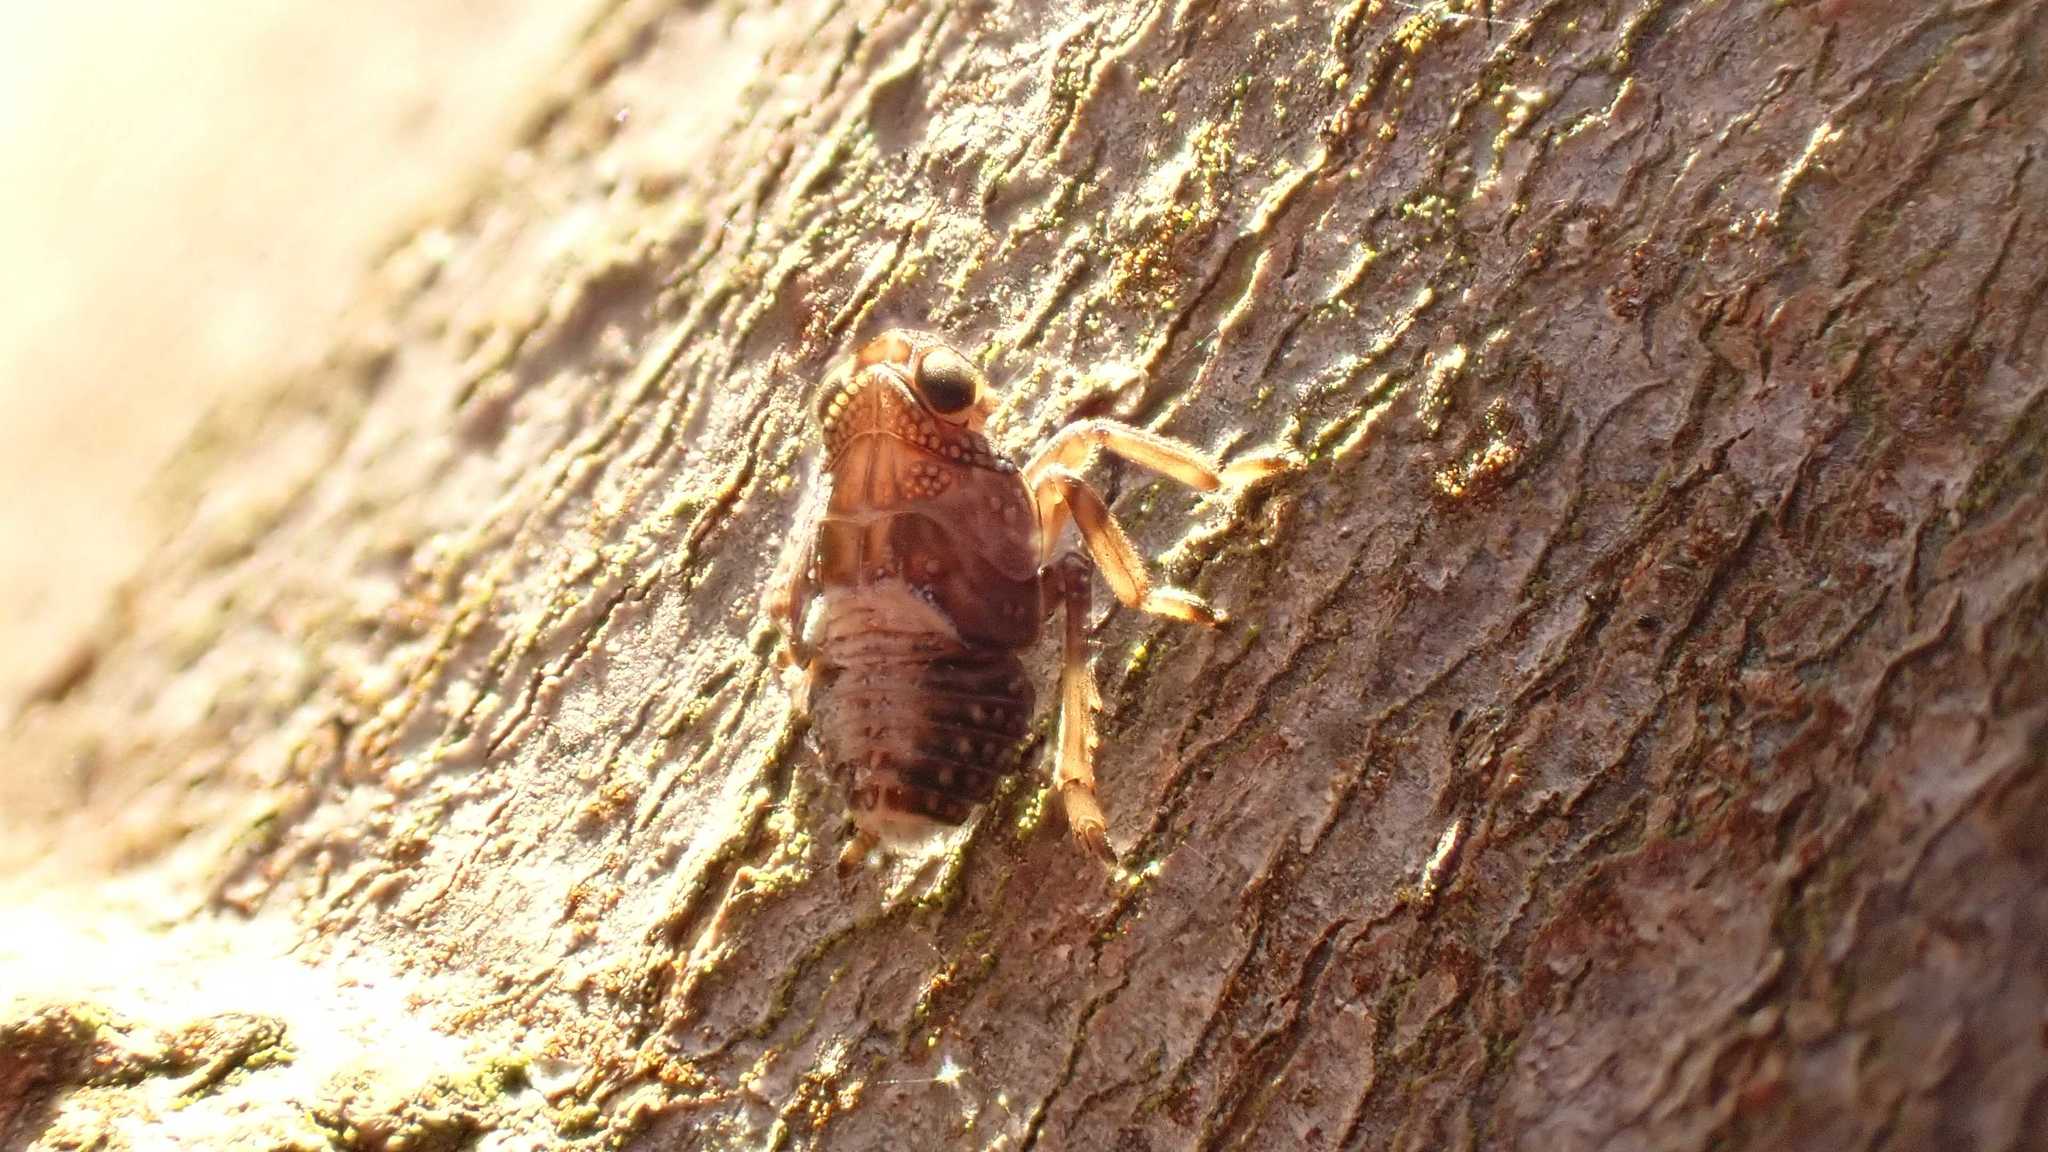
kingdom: Animalia
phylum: Arthropoda
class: Insecta
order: Hemiptera
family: Issidae
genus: Issus
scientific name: Issus
